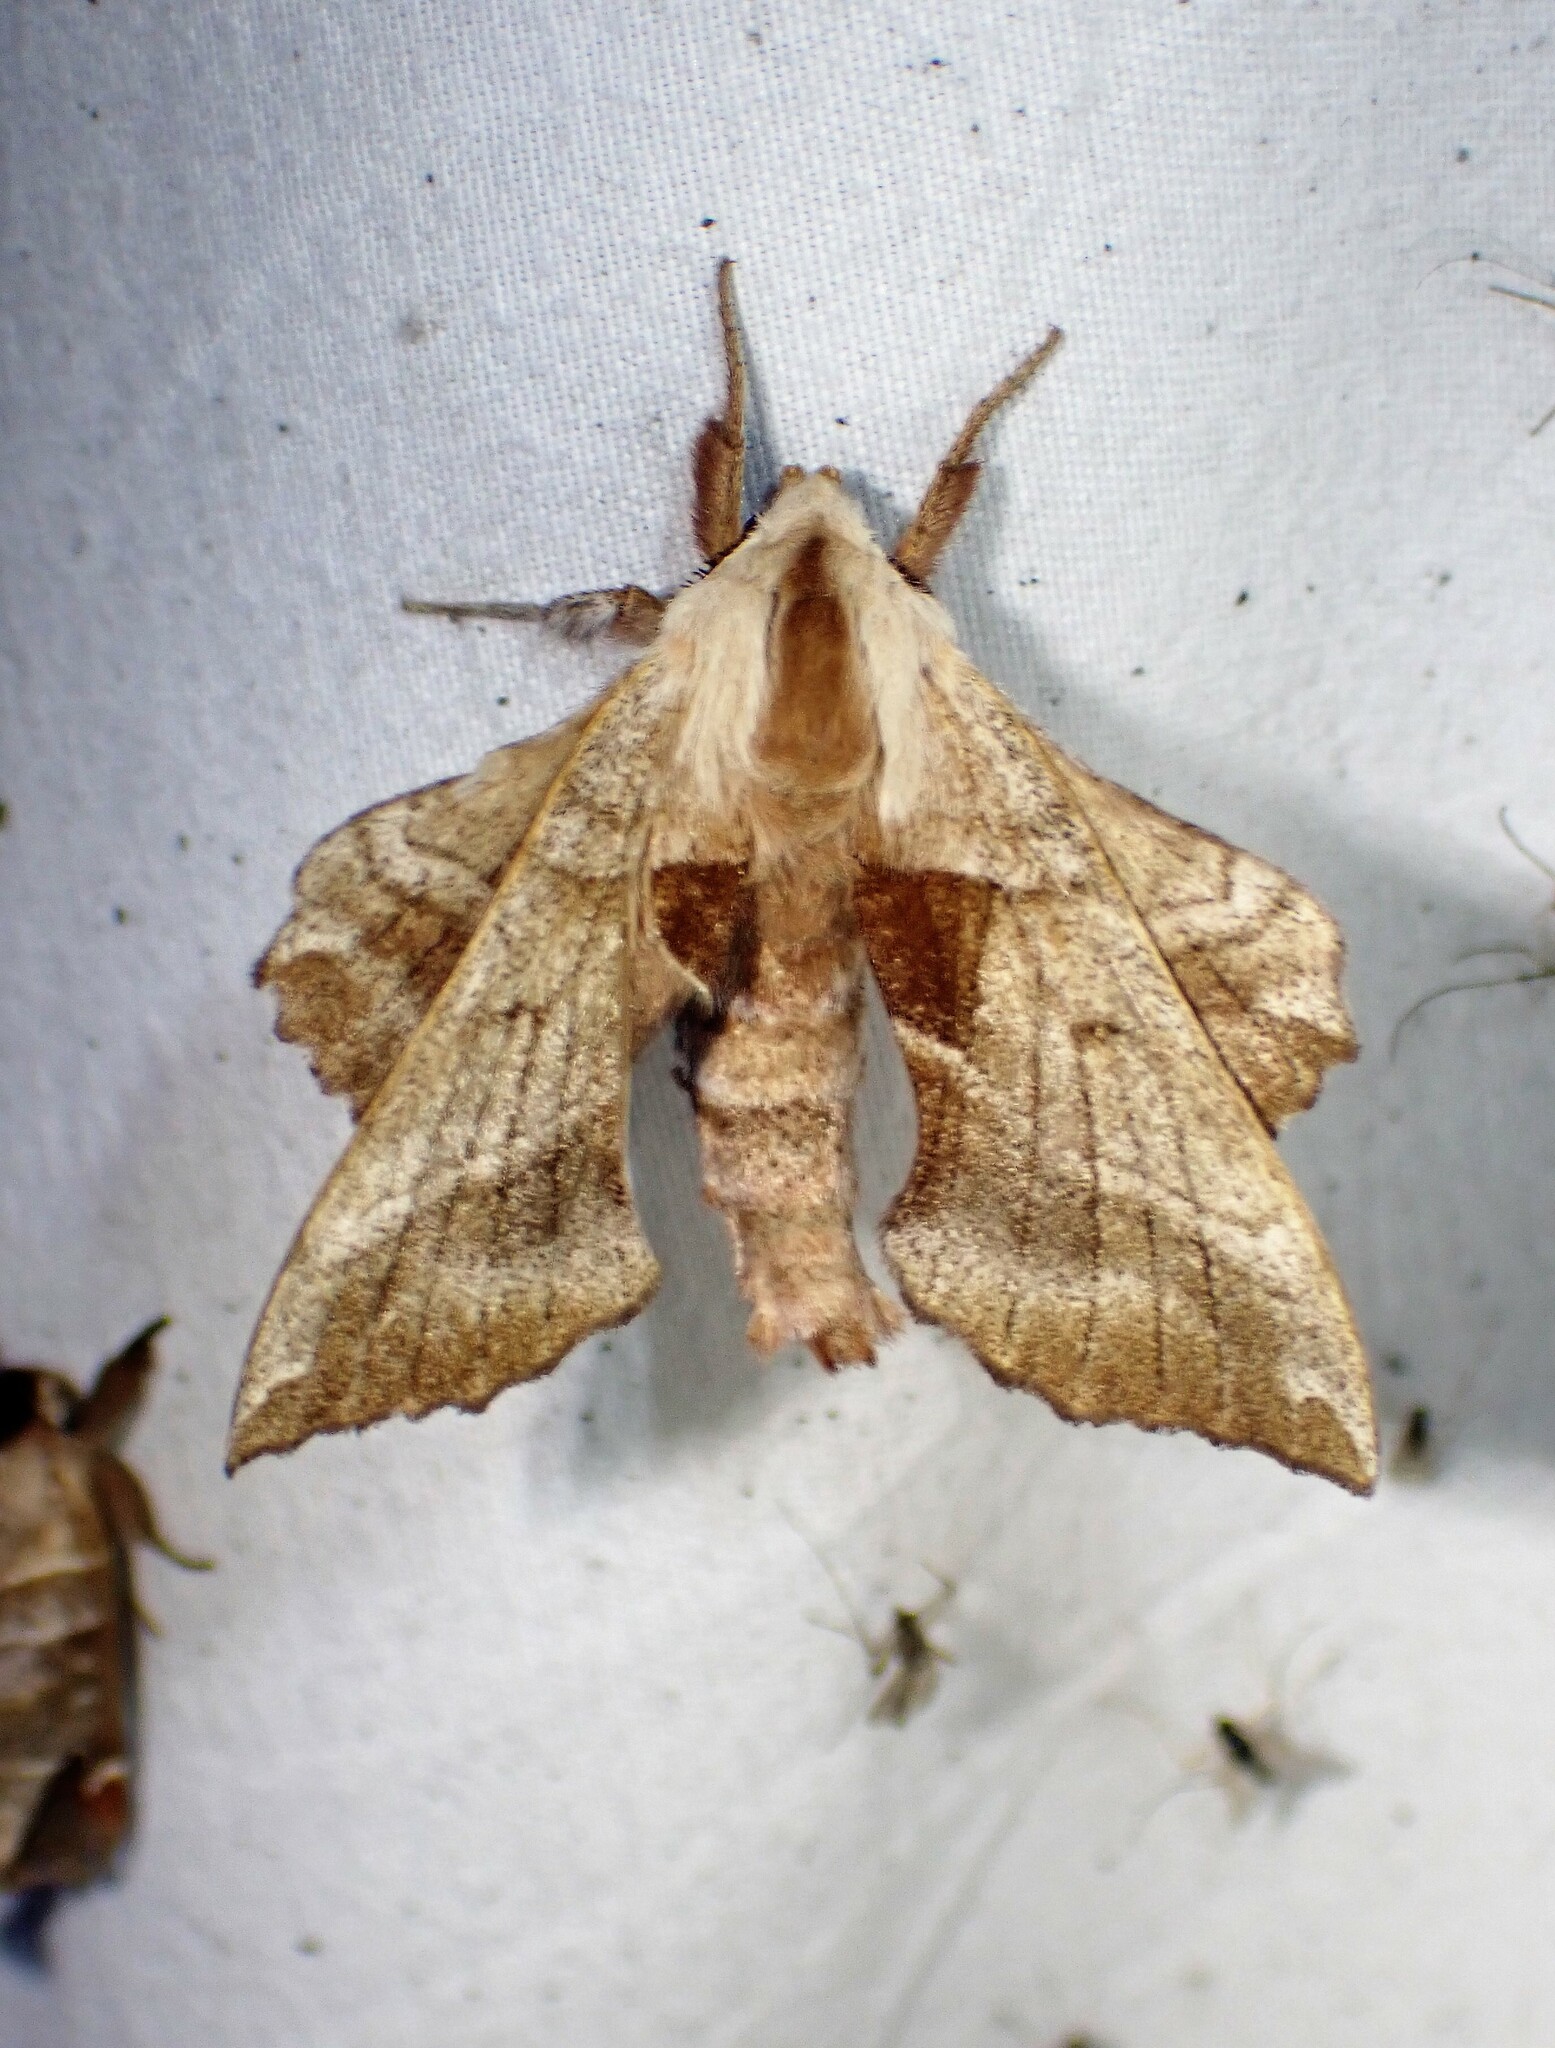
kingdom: Animalia
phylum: Arthropoda
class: Insecta
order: Lepidoptera
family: Sphingidae
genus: Amorpha
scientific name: Amorpha juglandis
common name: Walnut sphinx
